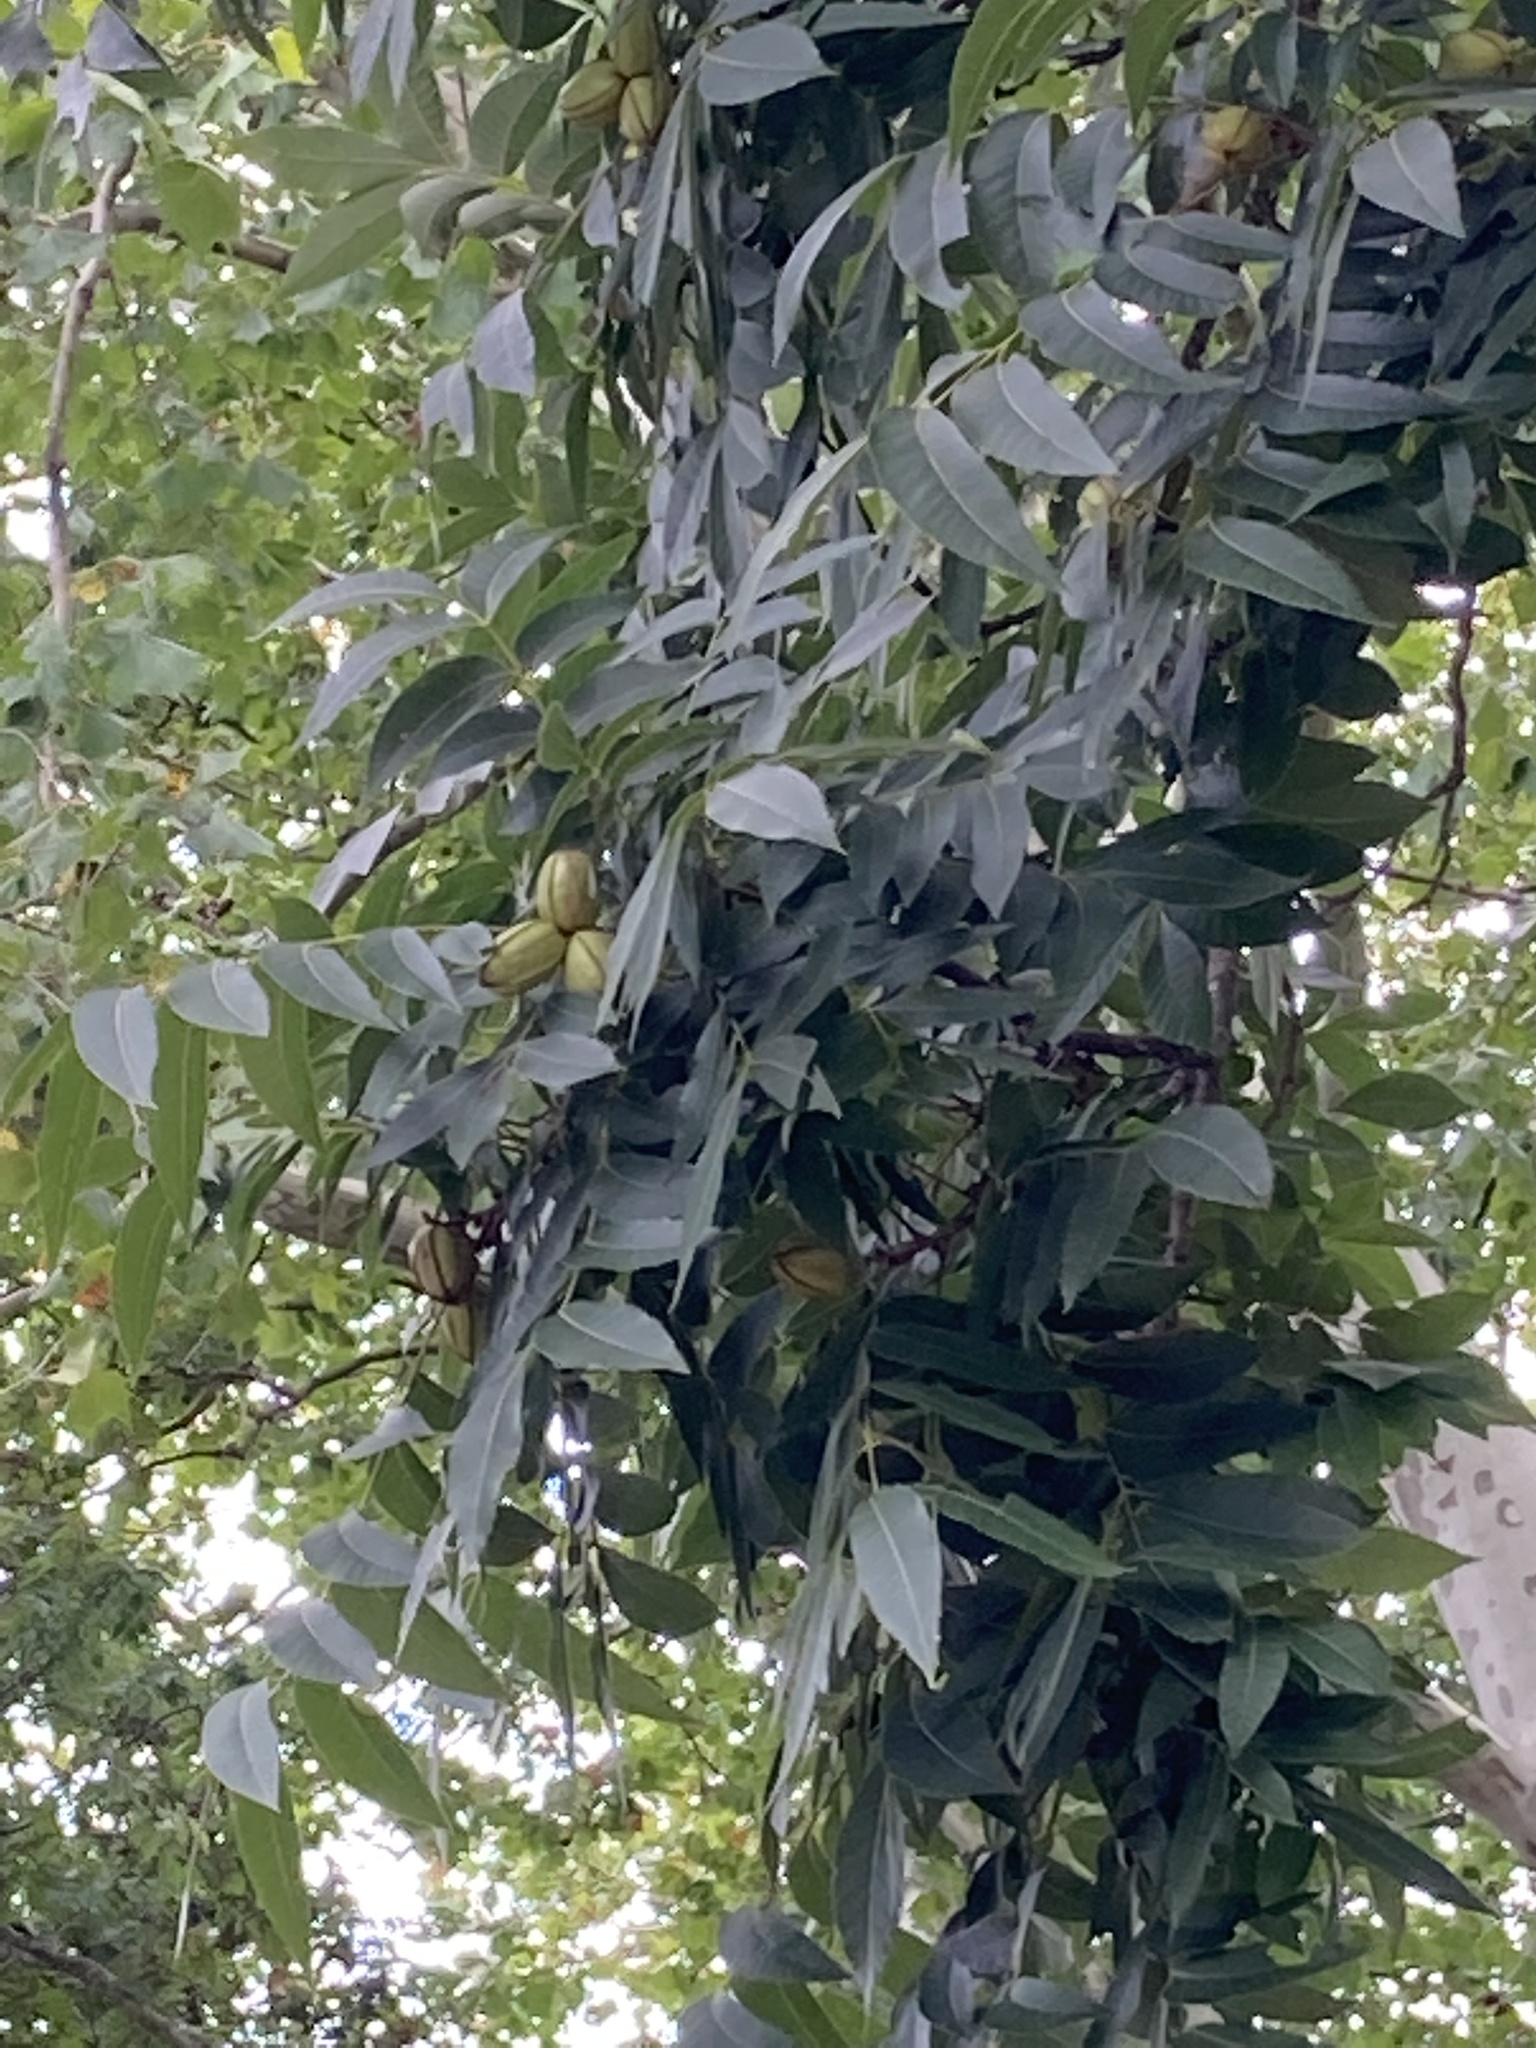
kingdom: Plantae
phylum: Tracheophyta
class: Magnoliopsida
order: Fagales
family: Juglandaceae
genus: Carya
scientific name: Carya illinoinensis
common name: Pecan
